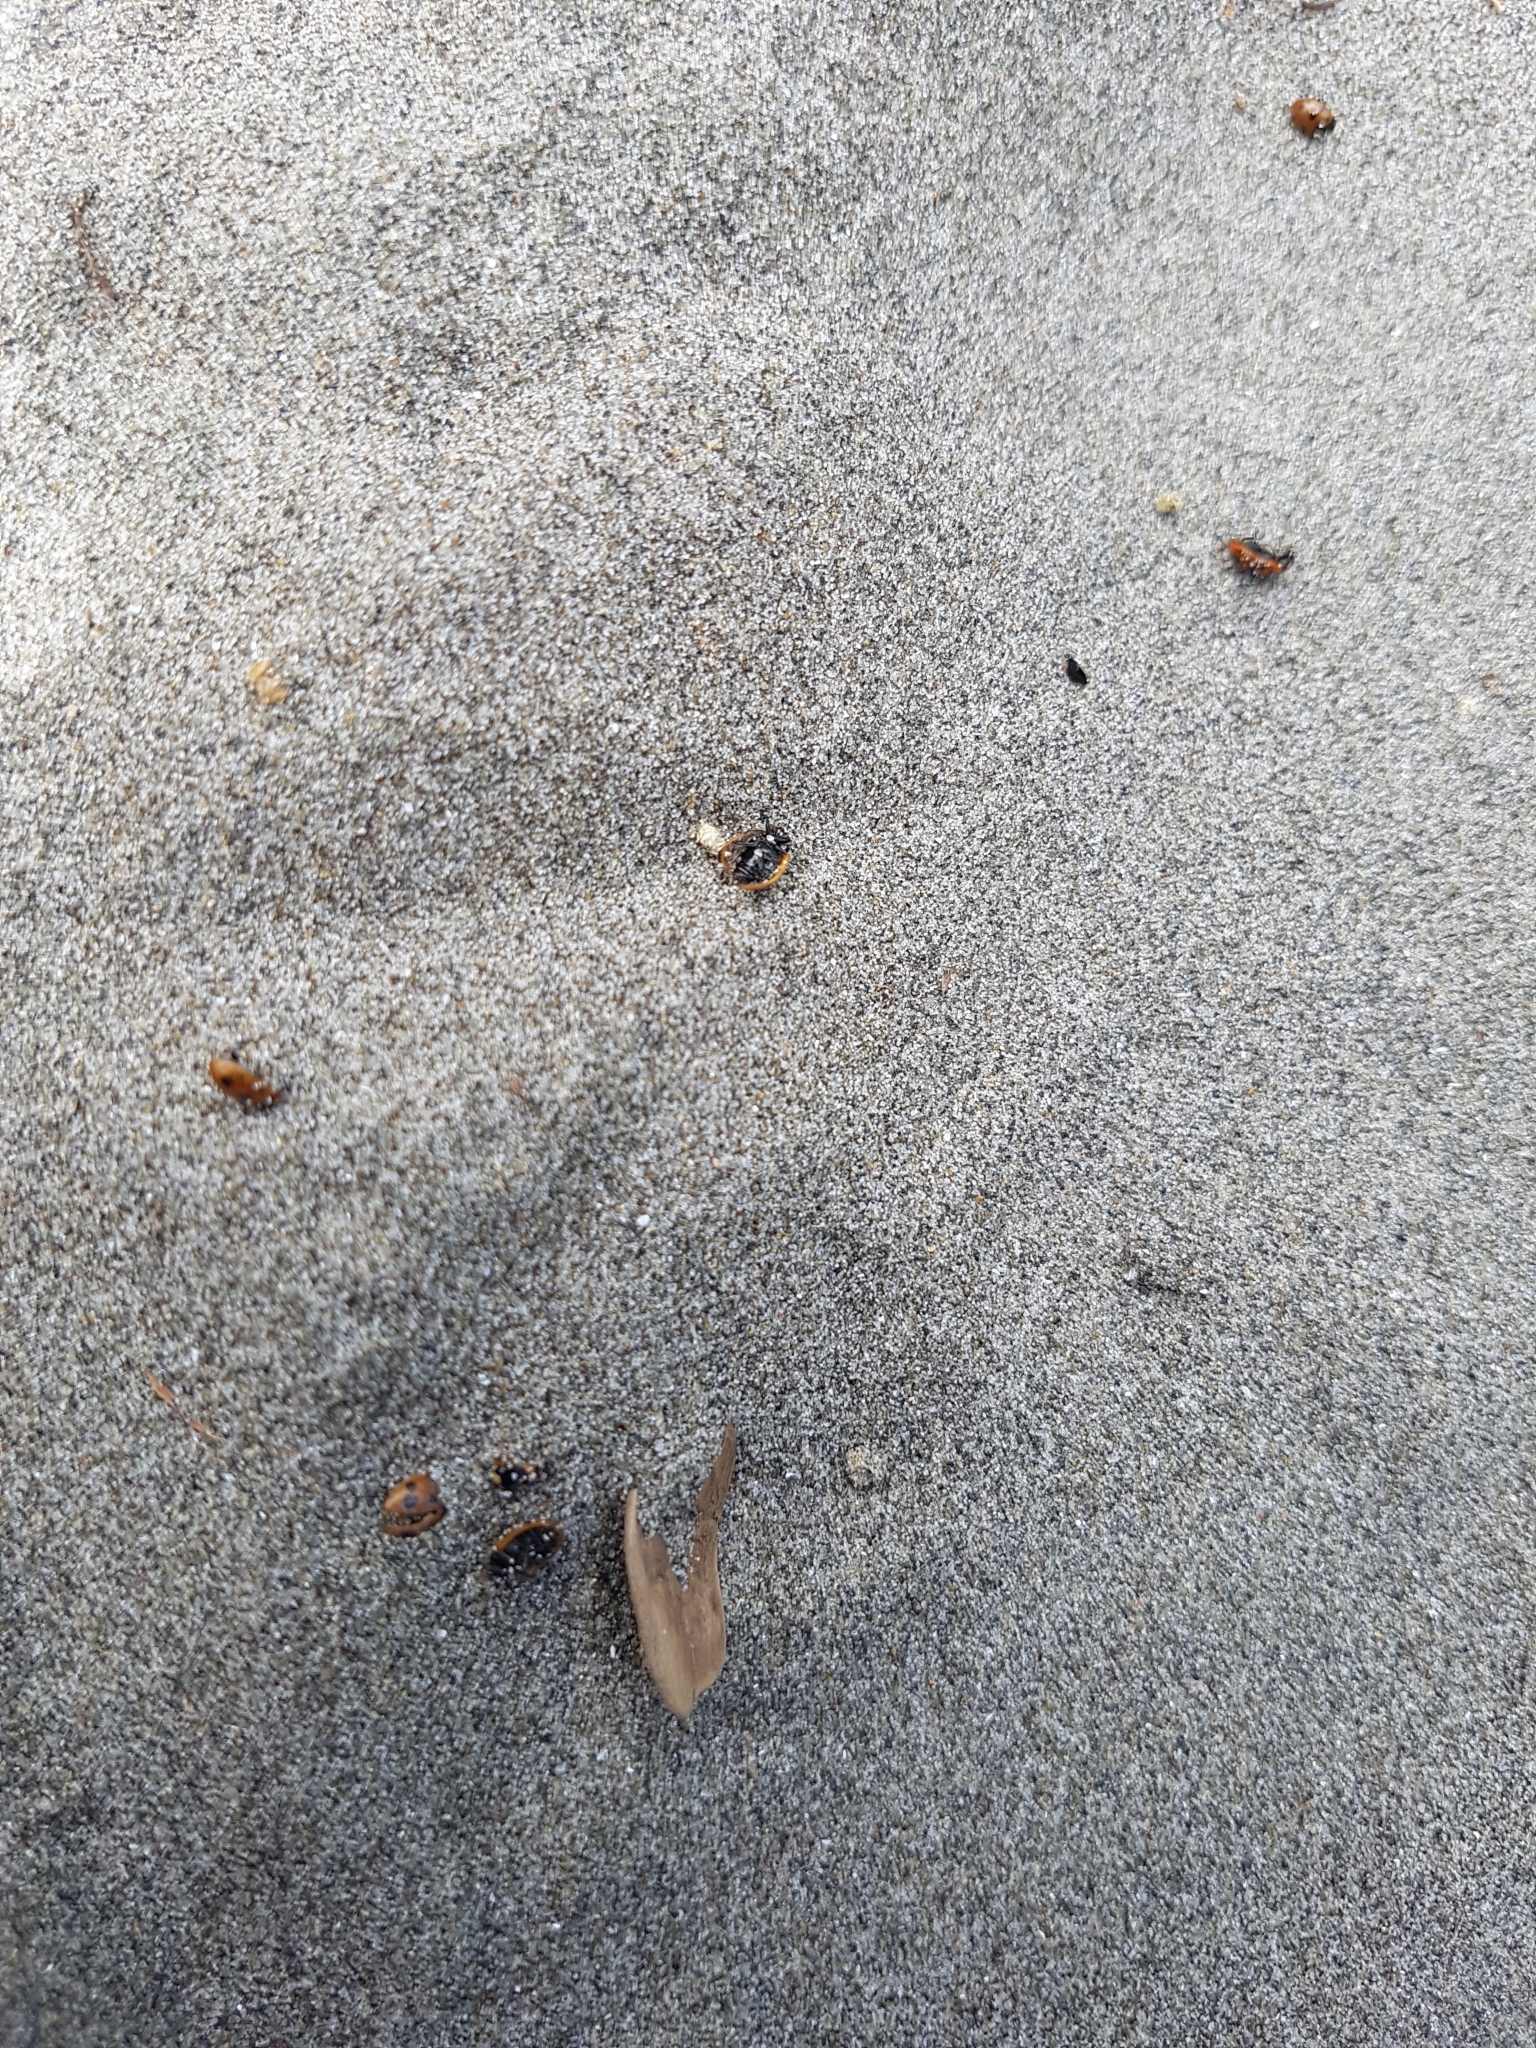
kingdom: Animalia
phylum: Arthropoda
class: Insecta
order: Coleoptera
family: Coccinellidae
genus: Coccinella
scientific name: Coccinella undecimpunctata
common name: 11-spot ladybird
